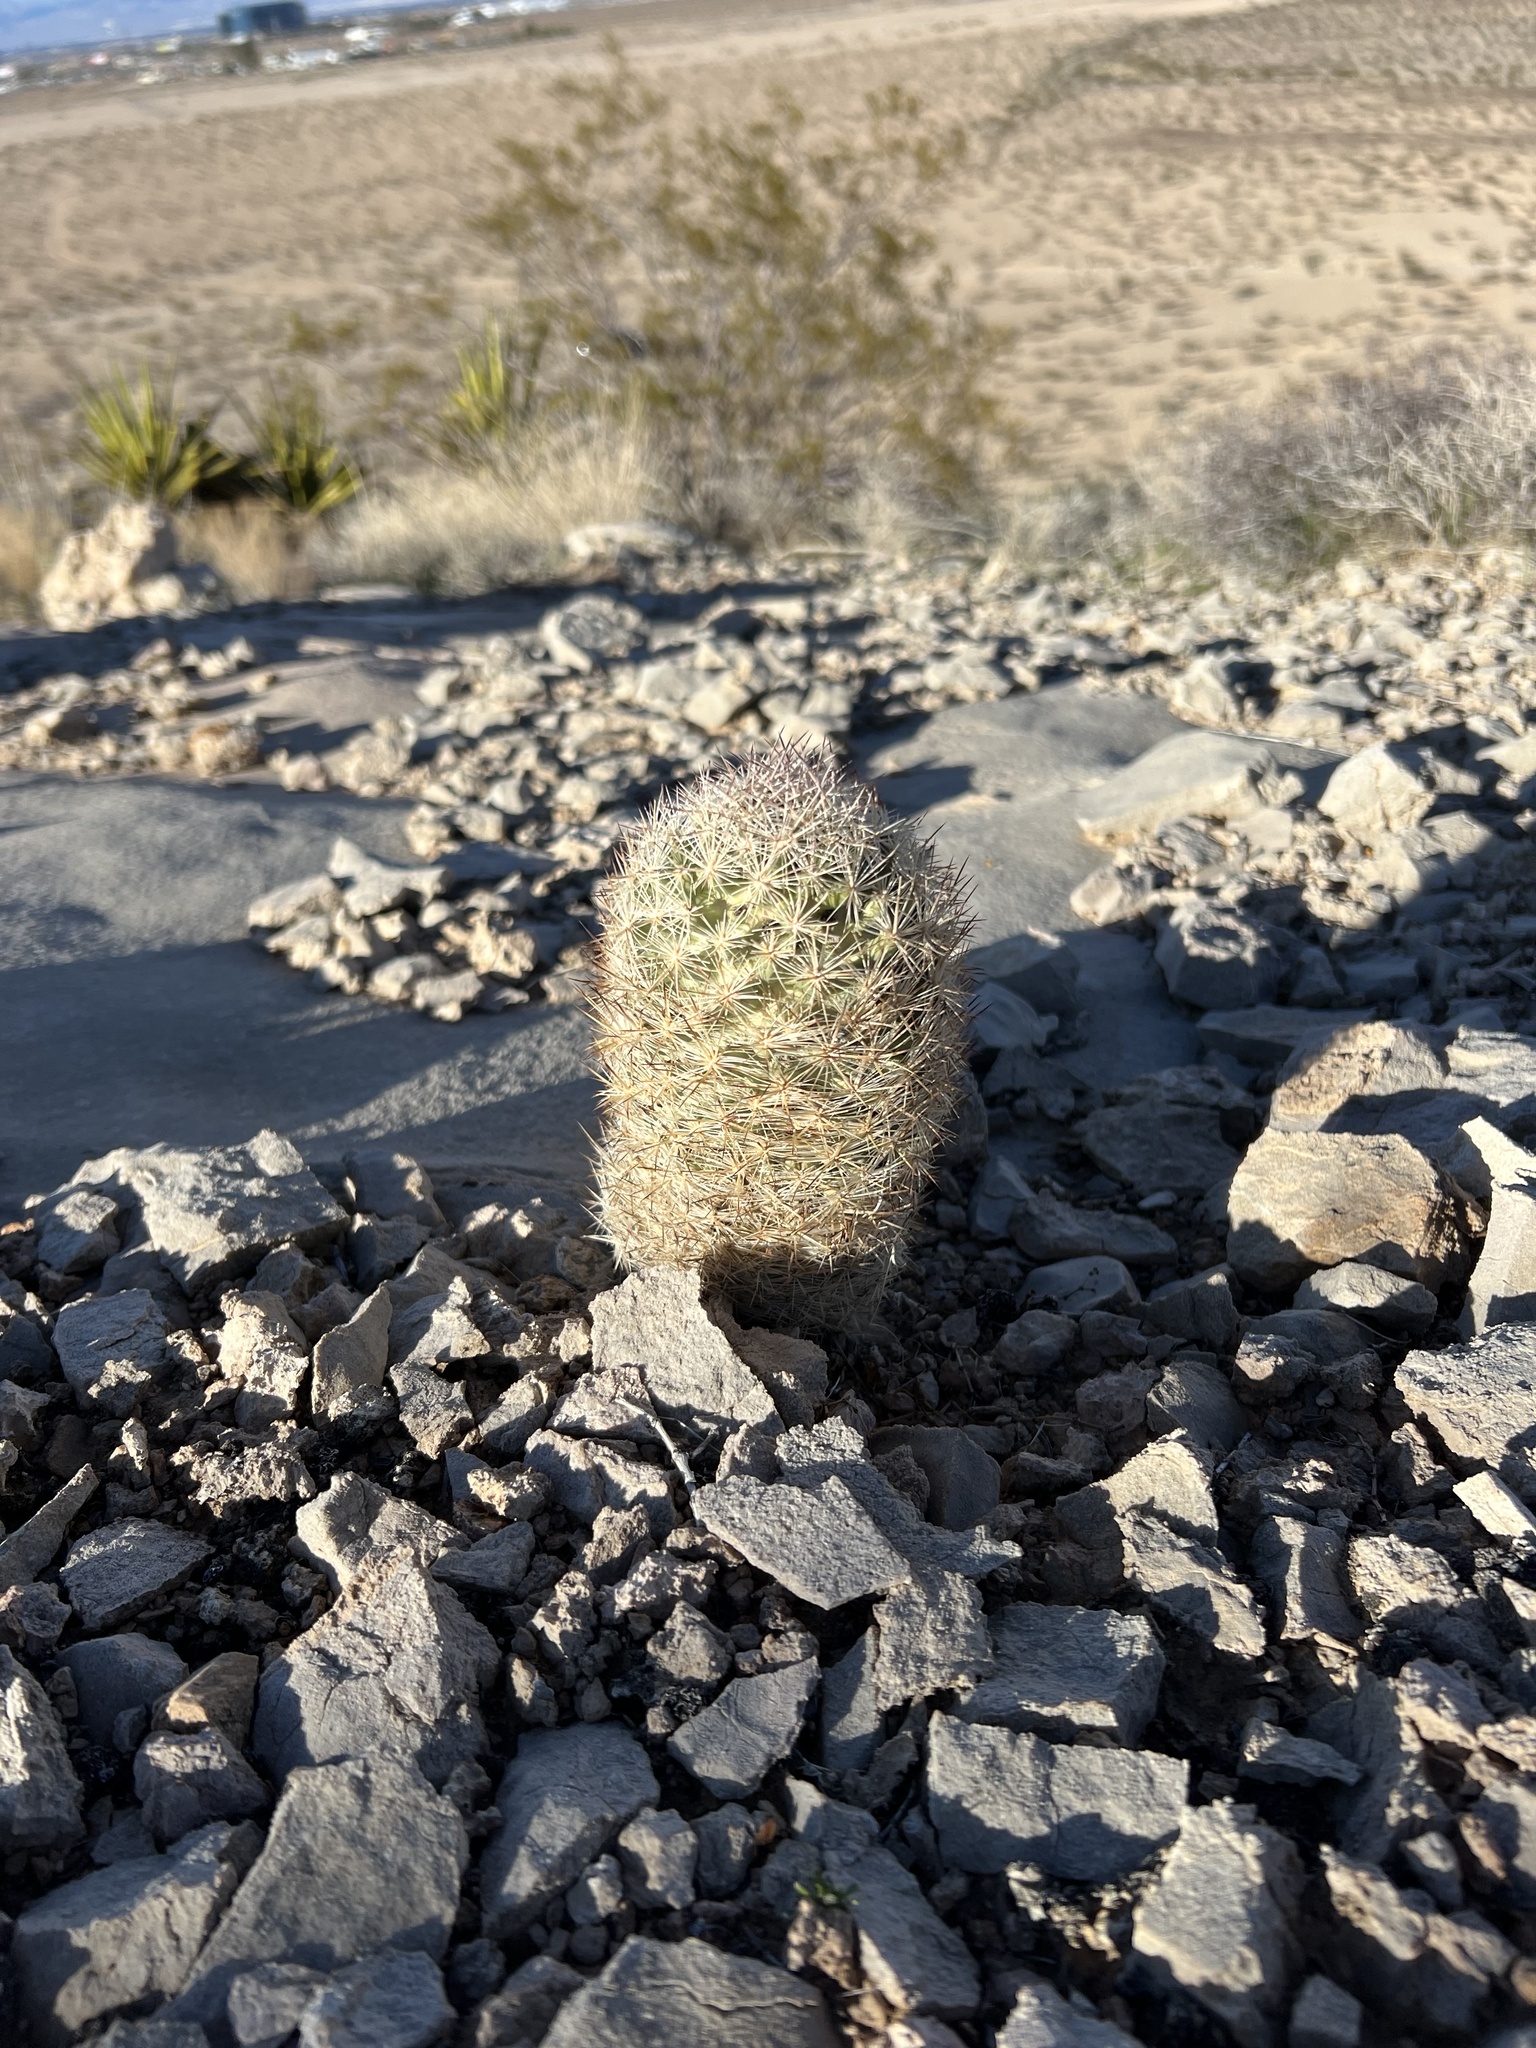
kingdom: Plantae
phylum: Tracheophyta
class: Magnoliopsida
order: Caryophyllales
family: Cactaceae
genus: Pelecyphora
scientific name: Pelecyphora dasyacantha
